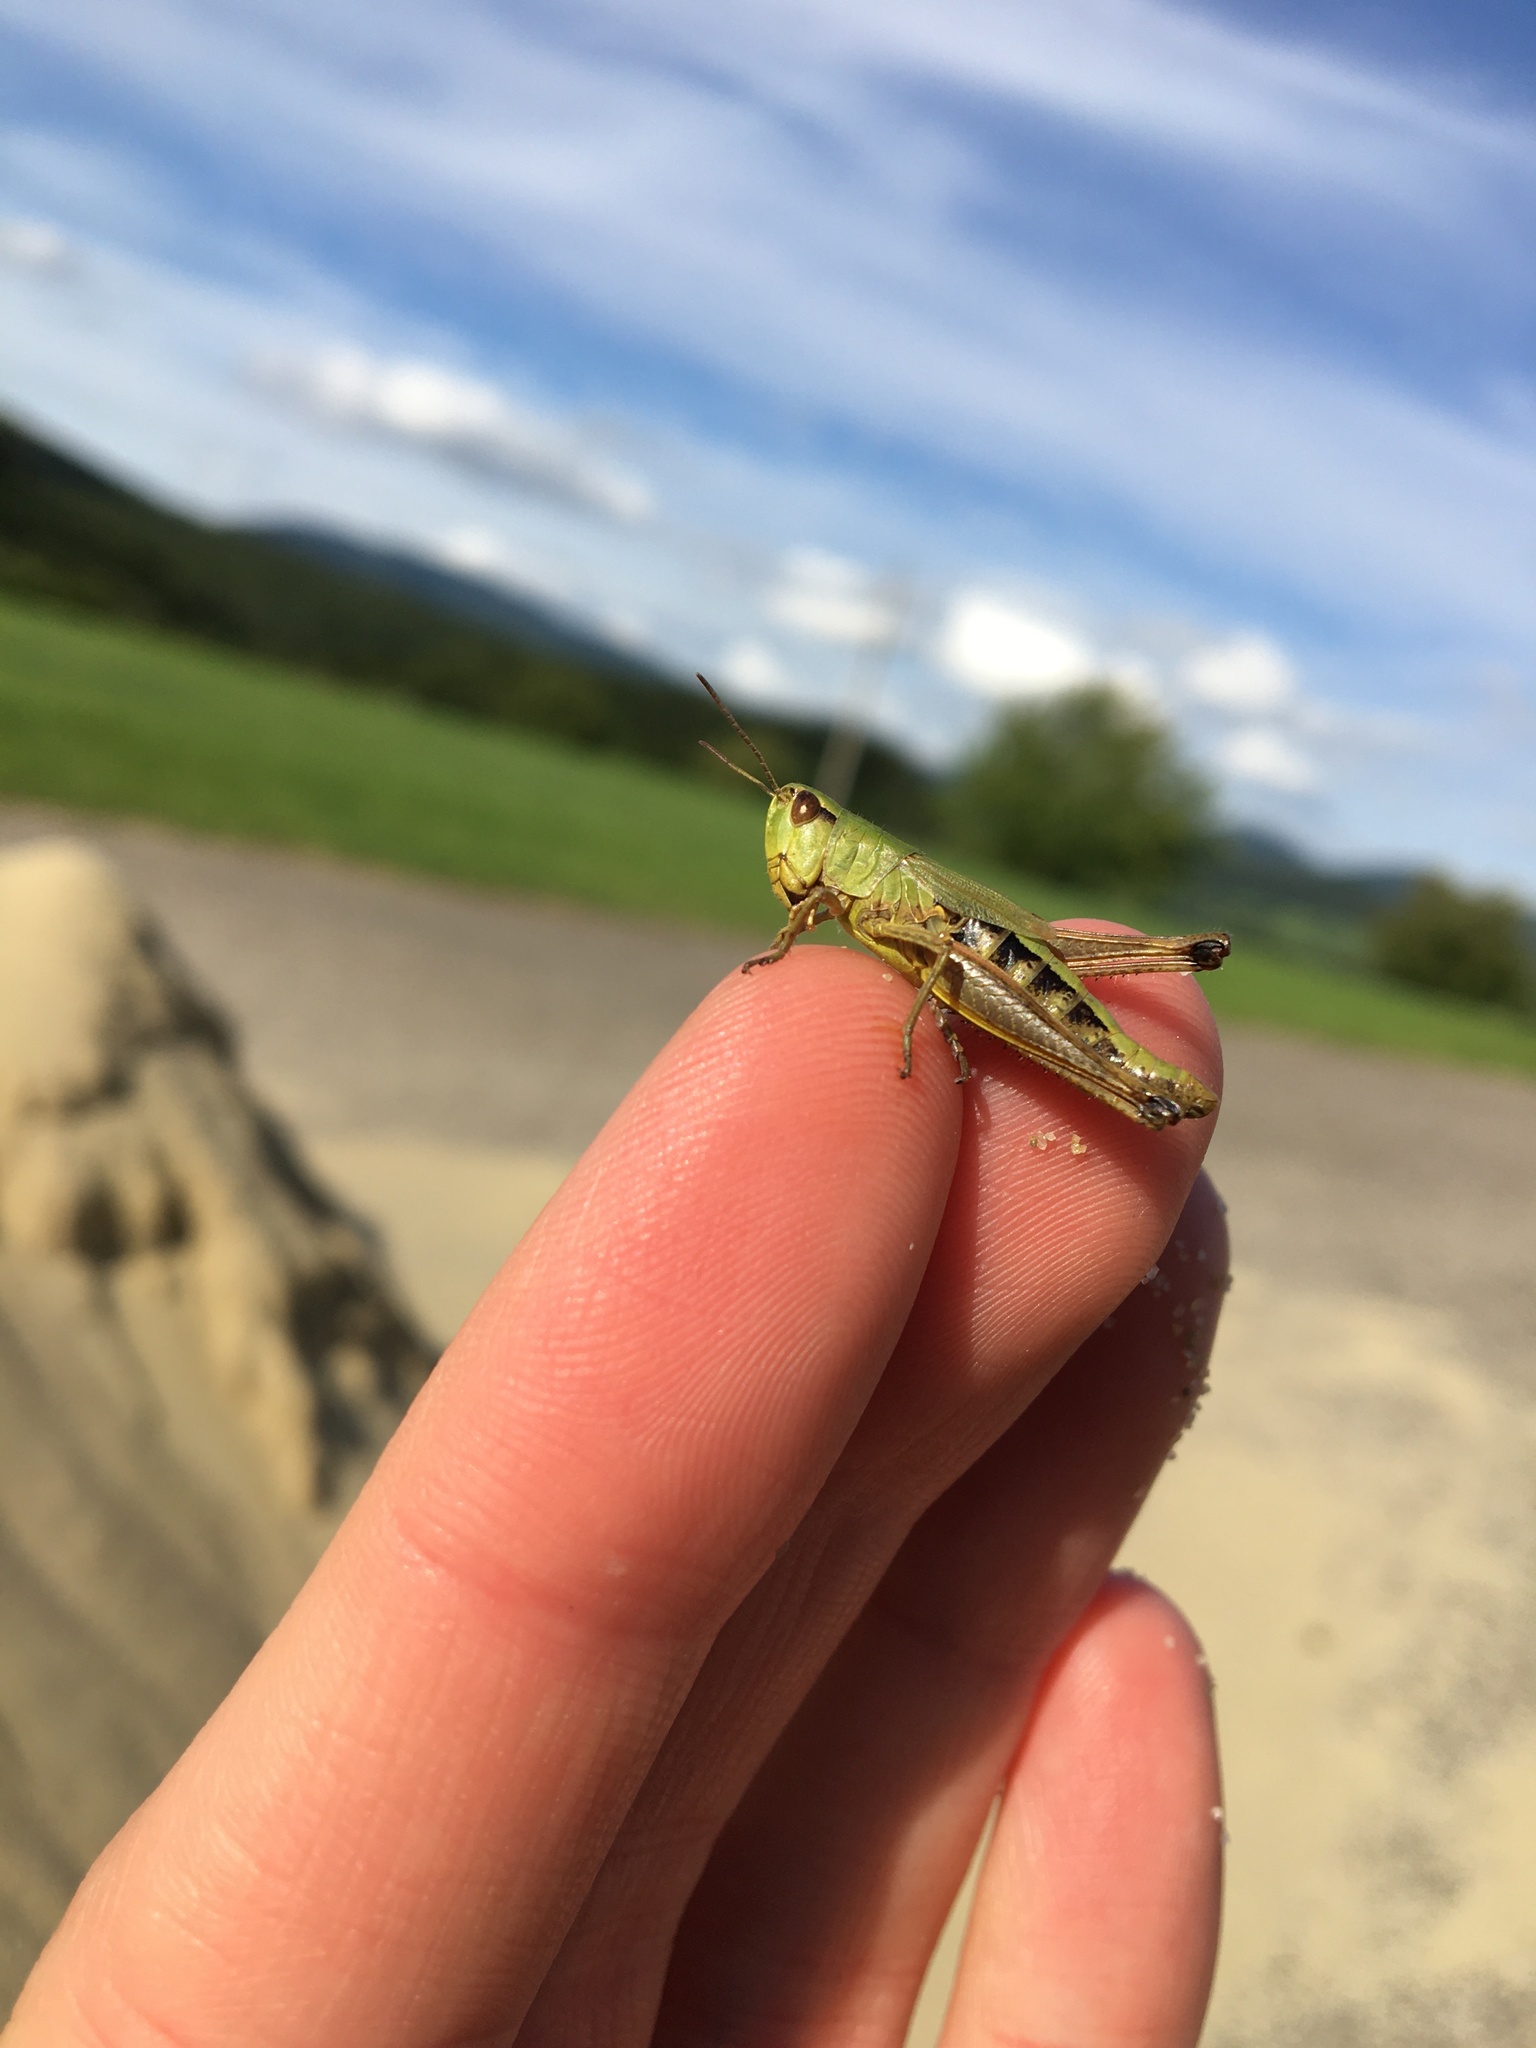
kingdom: Animalia
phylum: Arthropoda
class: Insecta
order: Orthoptera
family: Acrididae
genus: Pseudochorthippus
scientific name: Pseudochorthippus parallelus
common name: Meadow grasshopper
